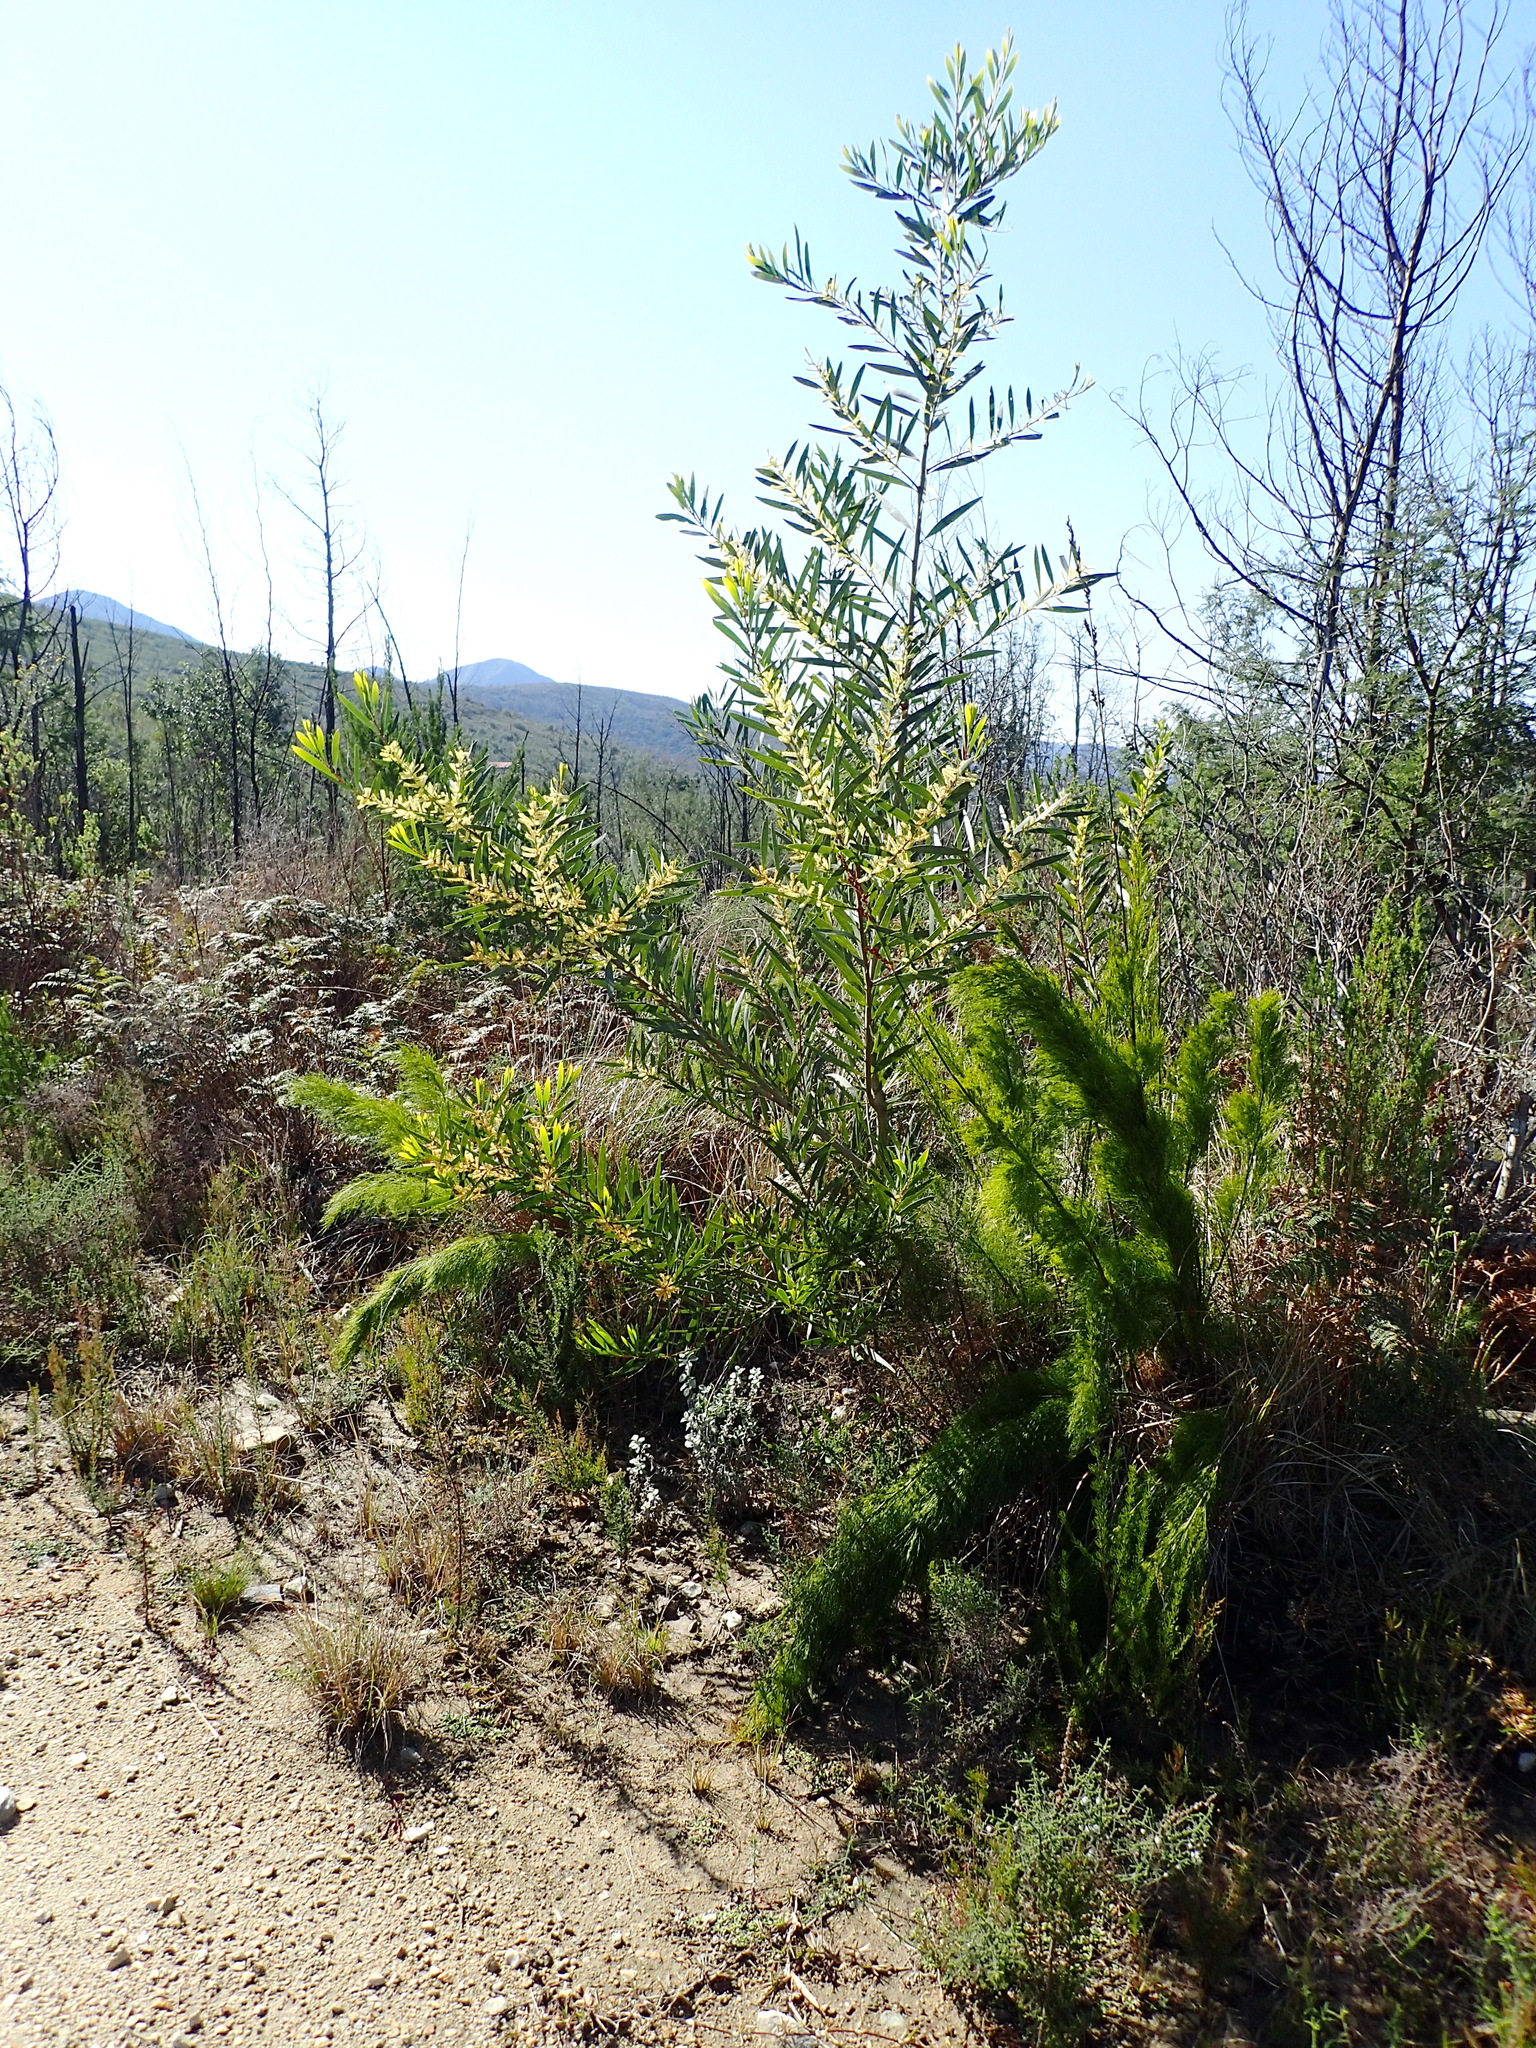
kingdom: Plantae
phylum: Tracheophyta
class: Magnoliopsida
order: Fabales
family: Fabaceae
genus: Acacia
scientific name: Acacia longifolia
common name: Sydney golden wattle
